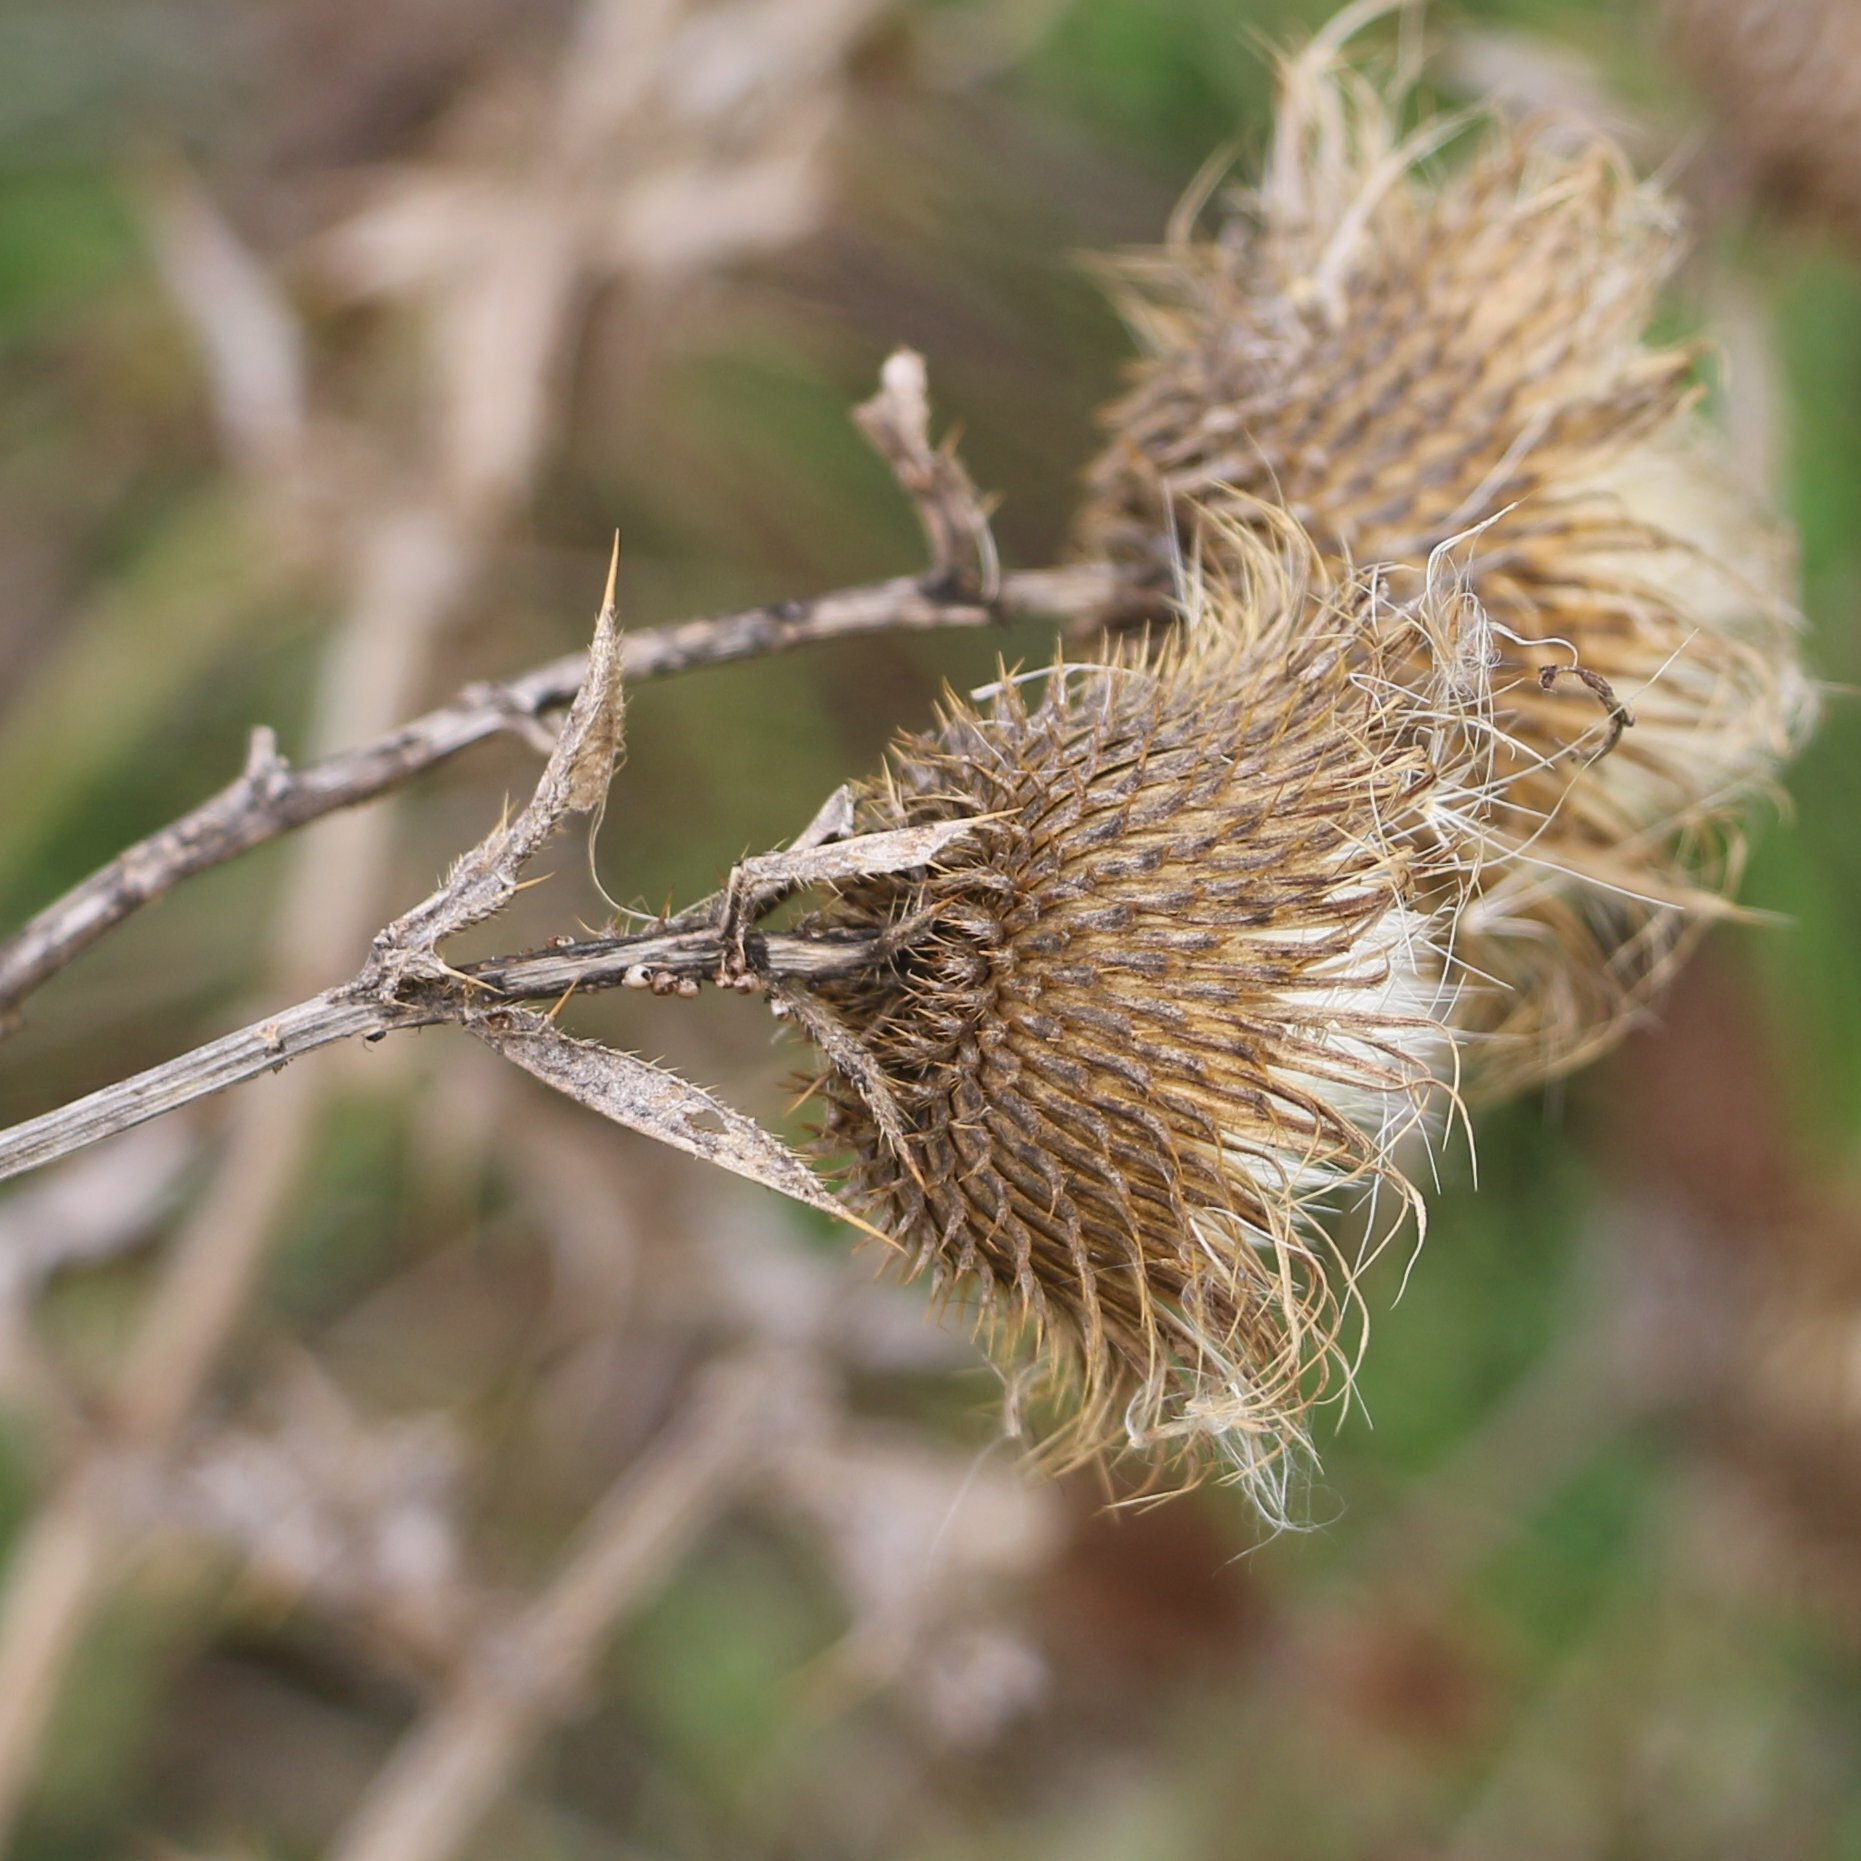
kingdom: Plantae
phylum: Tracheophyta
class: Magnoliopsida
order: Asterales
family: Asteraceae
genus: Cirsium
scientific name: Cirsium serrulatum
